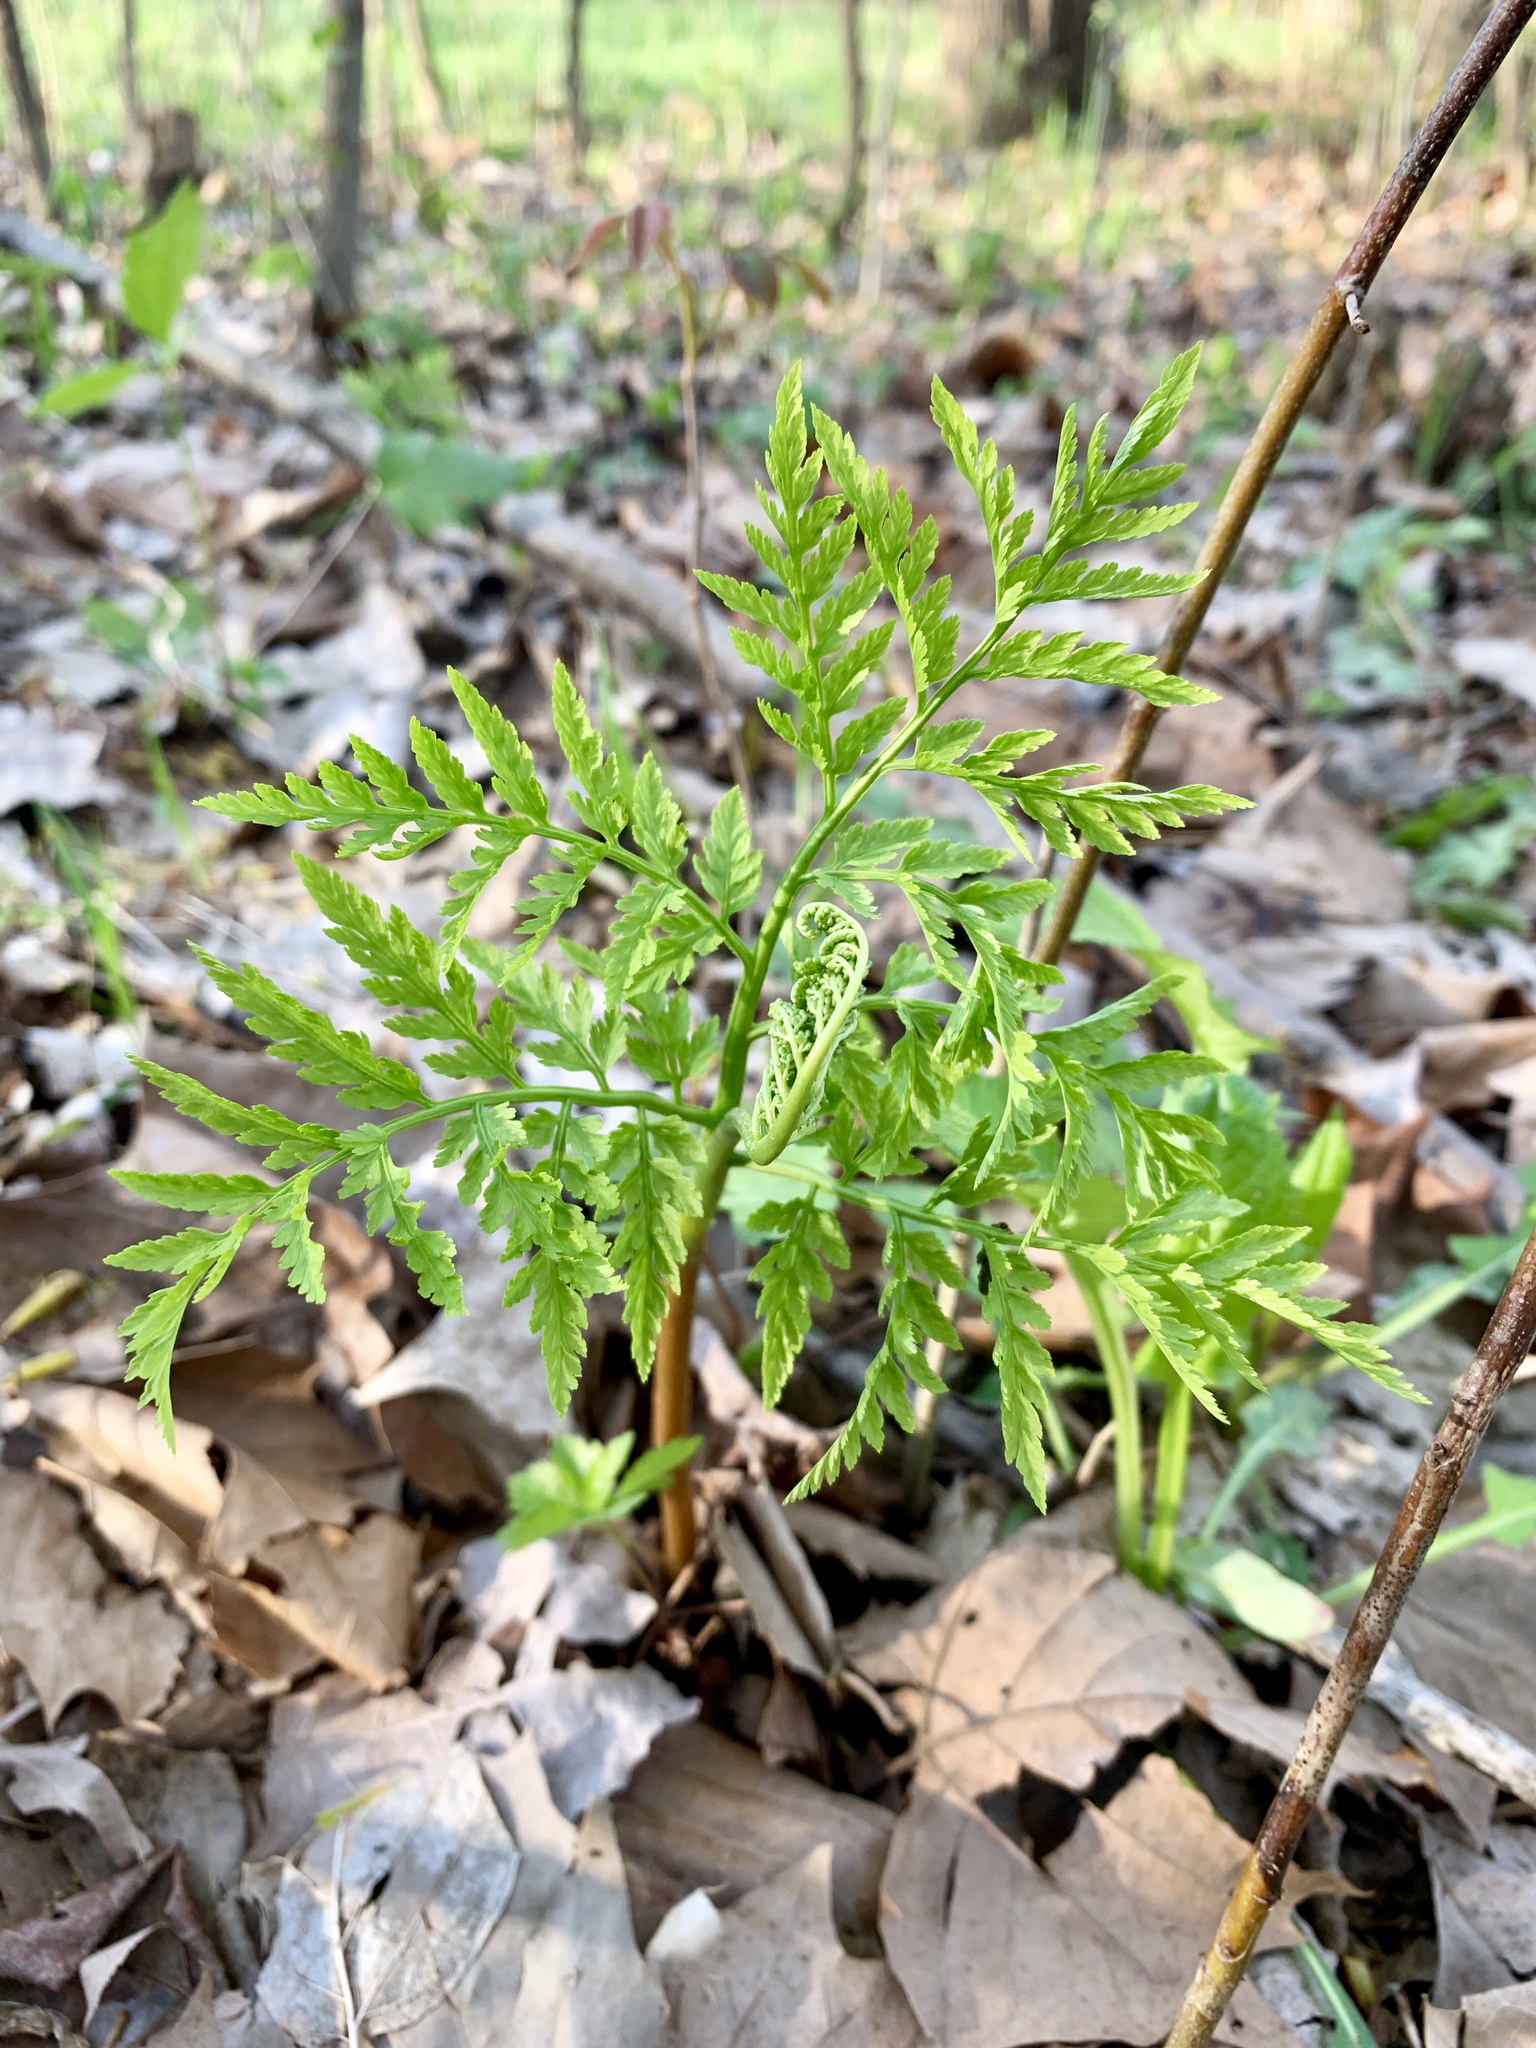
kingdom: Plantae
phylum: Tracheophyta
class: Polypodiopsida
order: Ophioglossales
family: Ophioglossaceae
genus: Botrypus
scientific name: Botrypus virginianus
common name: Common grapefern
